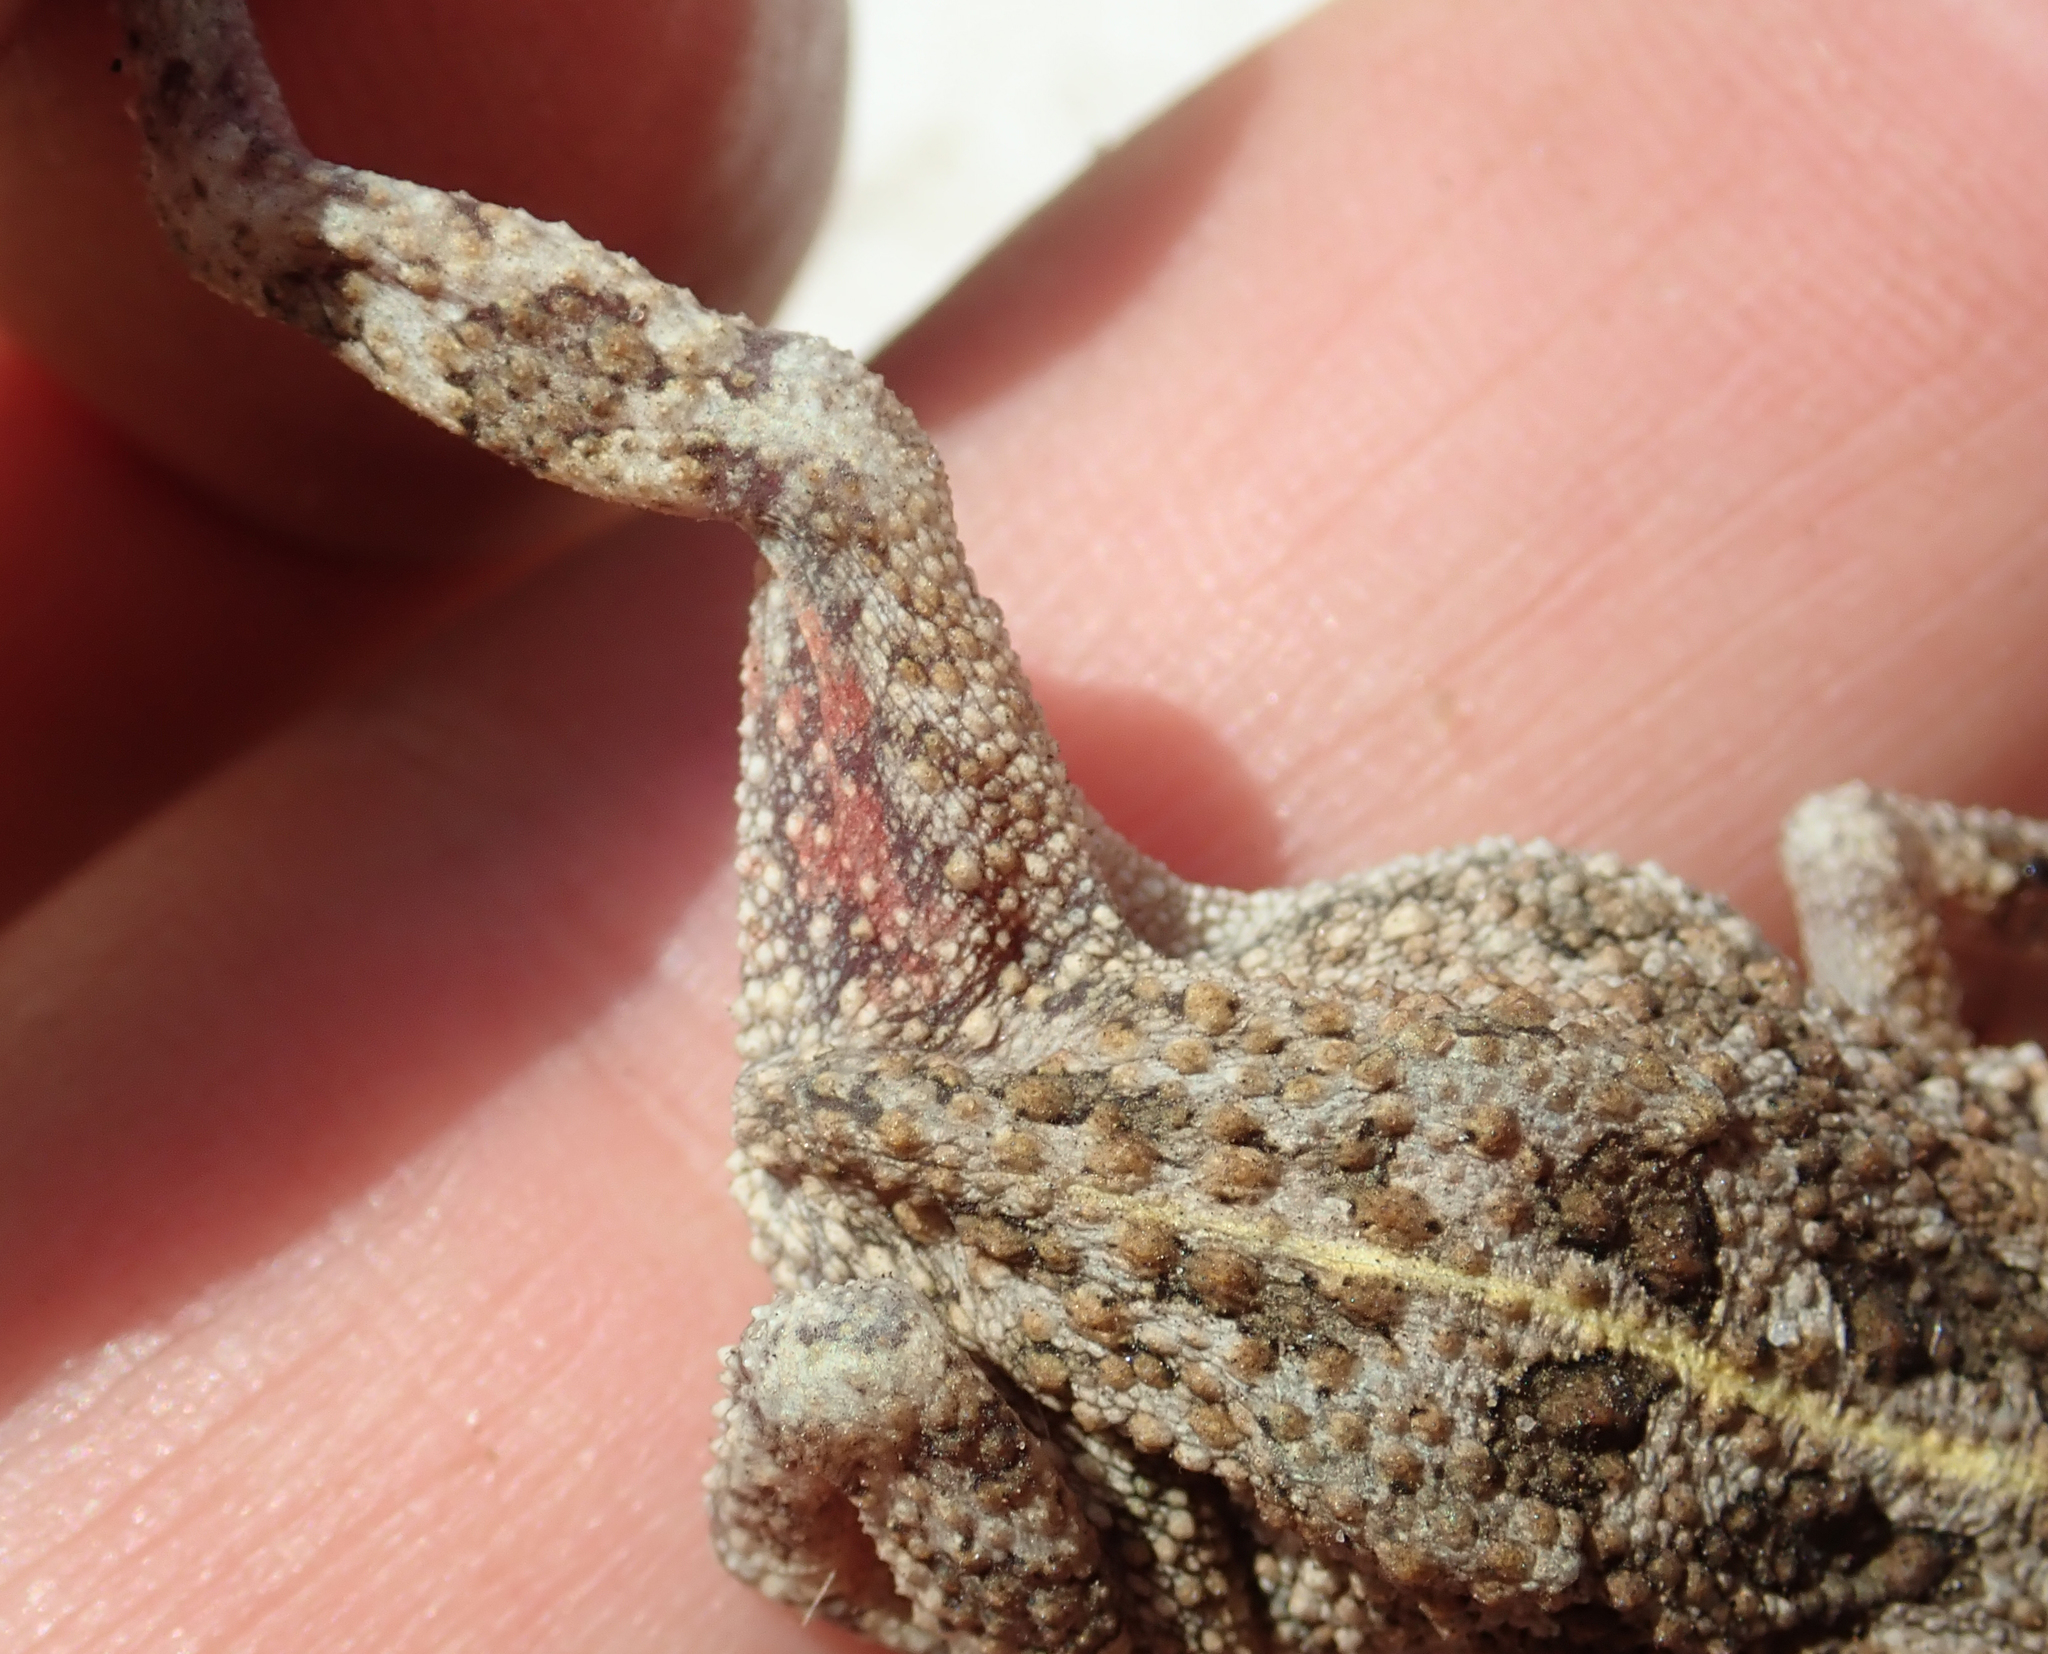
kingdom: Animalia
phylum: Chordata
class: Amphibia
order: Anura
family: Bufonidae
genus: Sclerophrys
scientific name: Sclerophrys gutturalis
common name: African common toad
